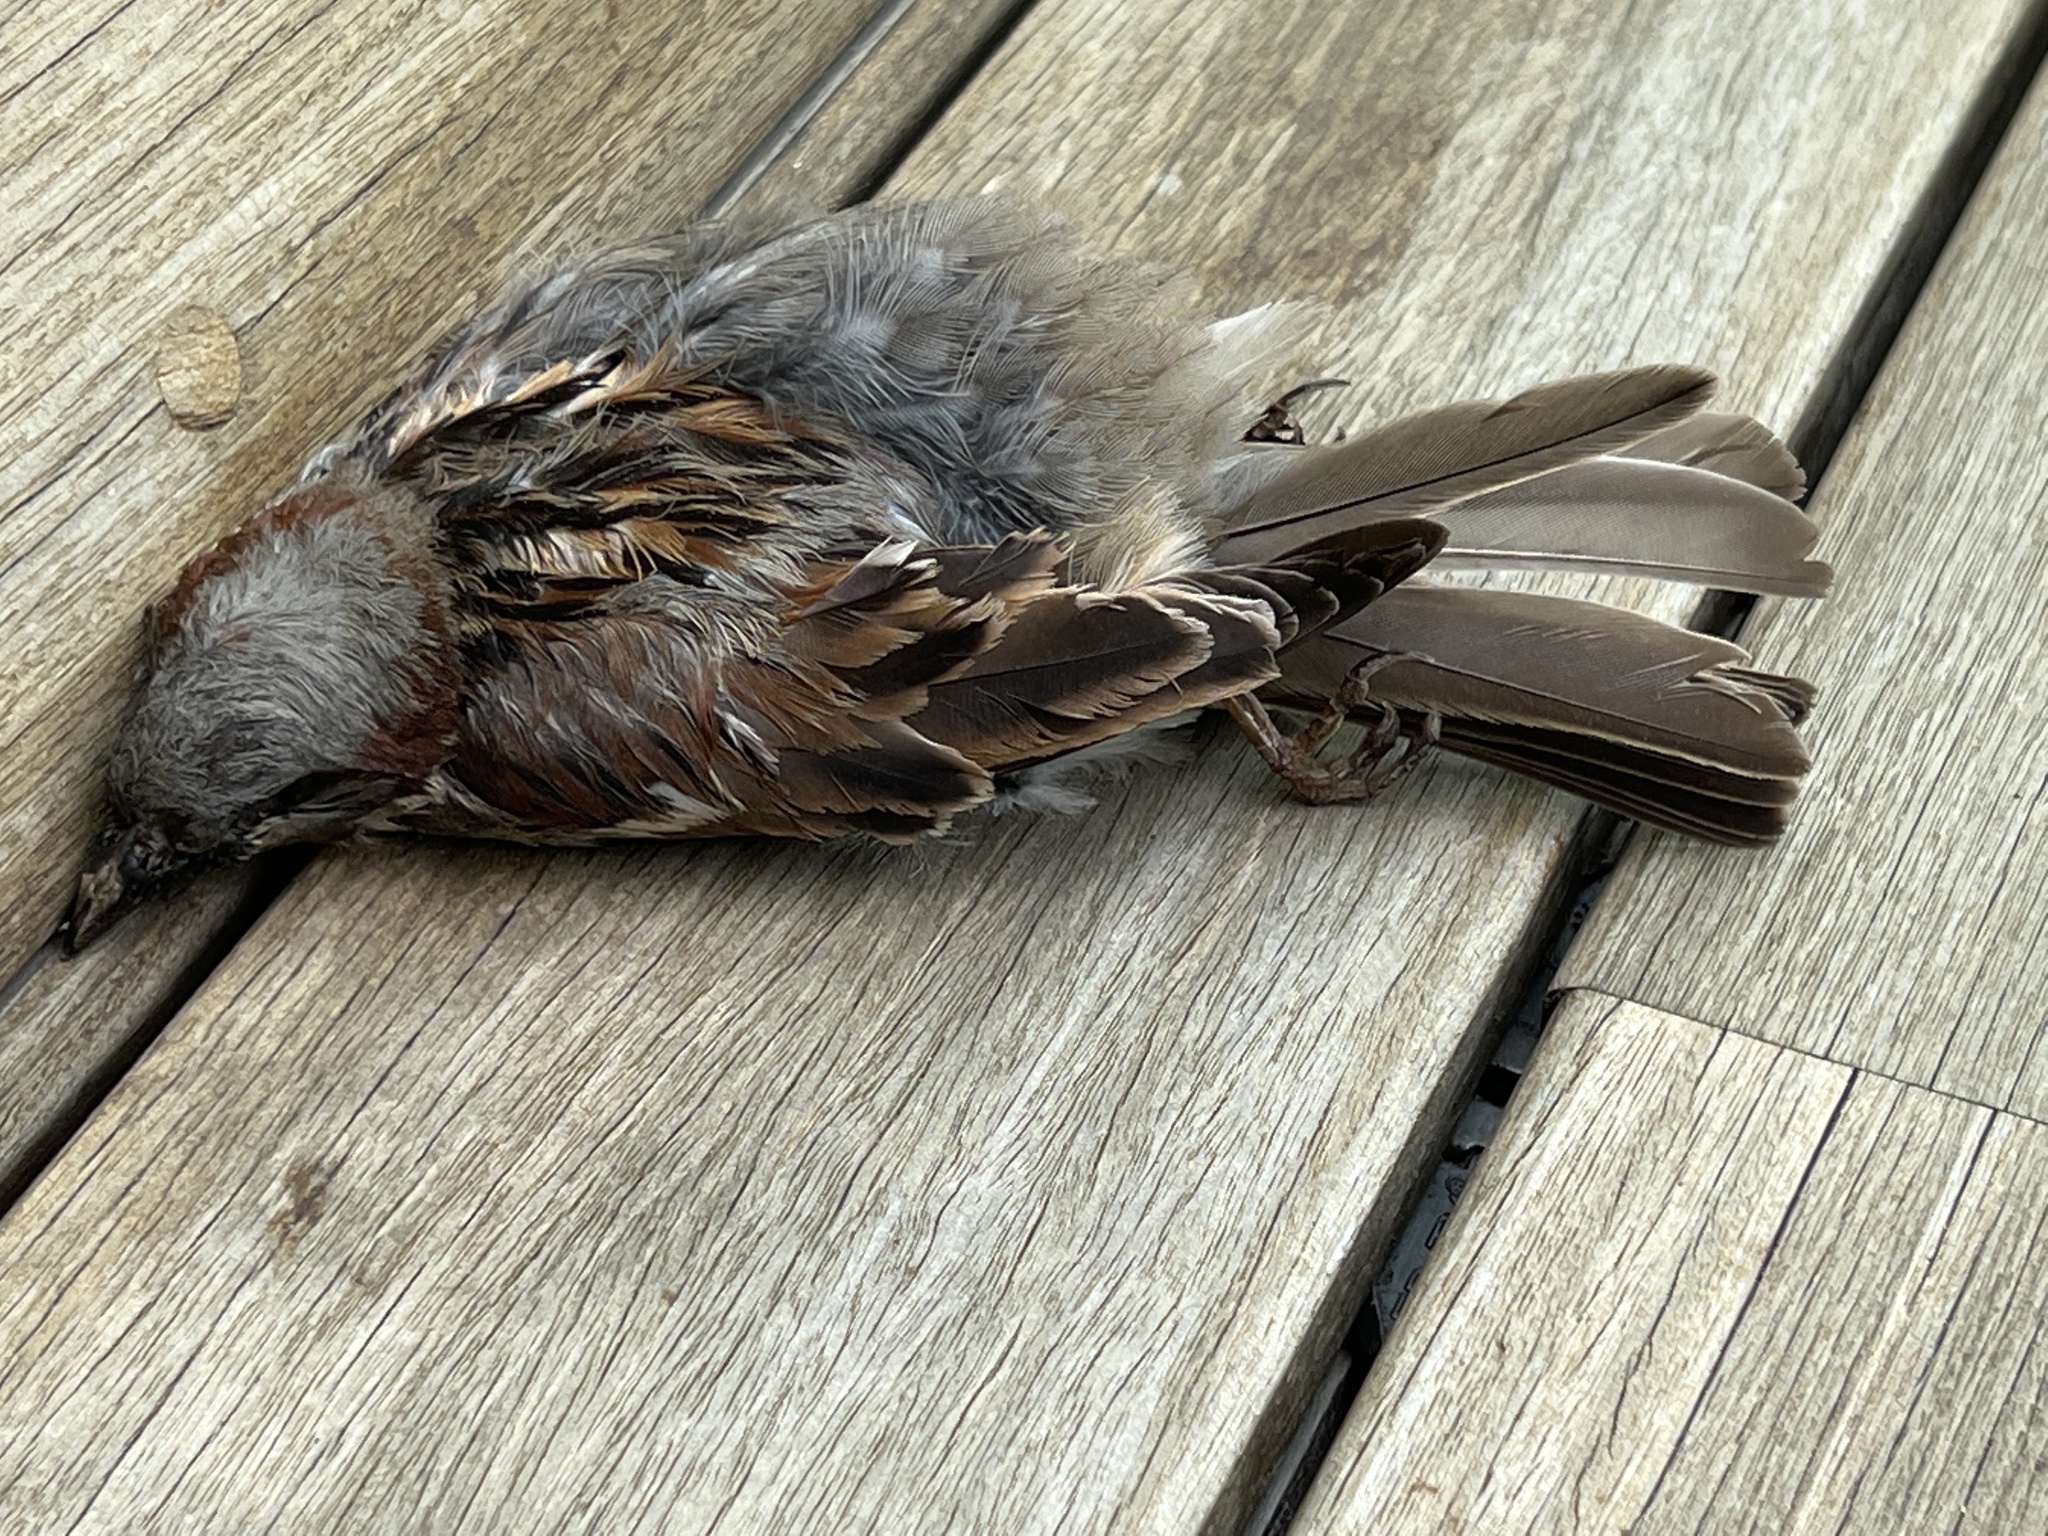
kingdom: Animalia
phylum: Chordata
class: Aves
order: Passeriformes
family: Passeridae
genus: Passer
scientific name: Passer domesticus
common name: House sparrow
